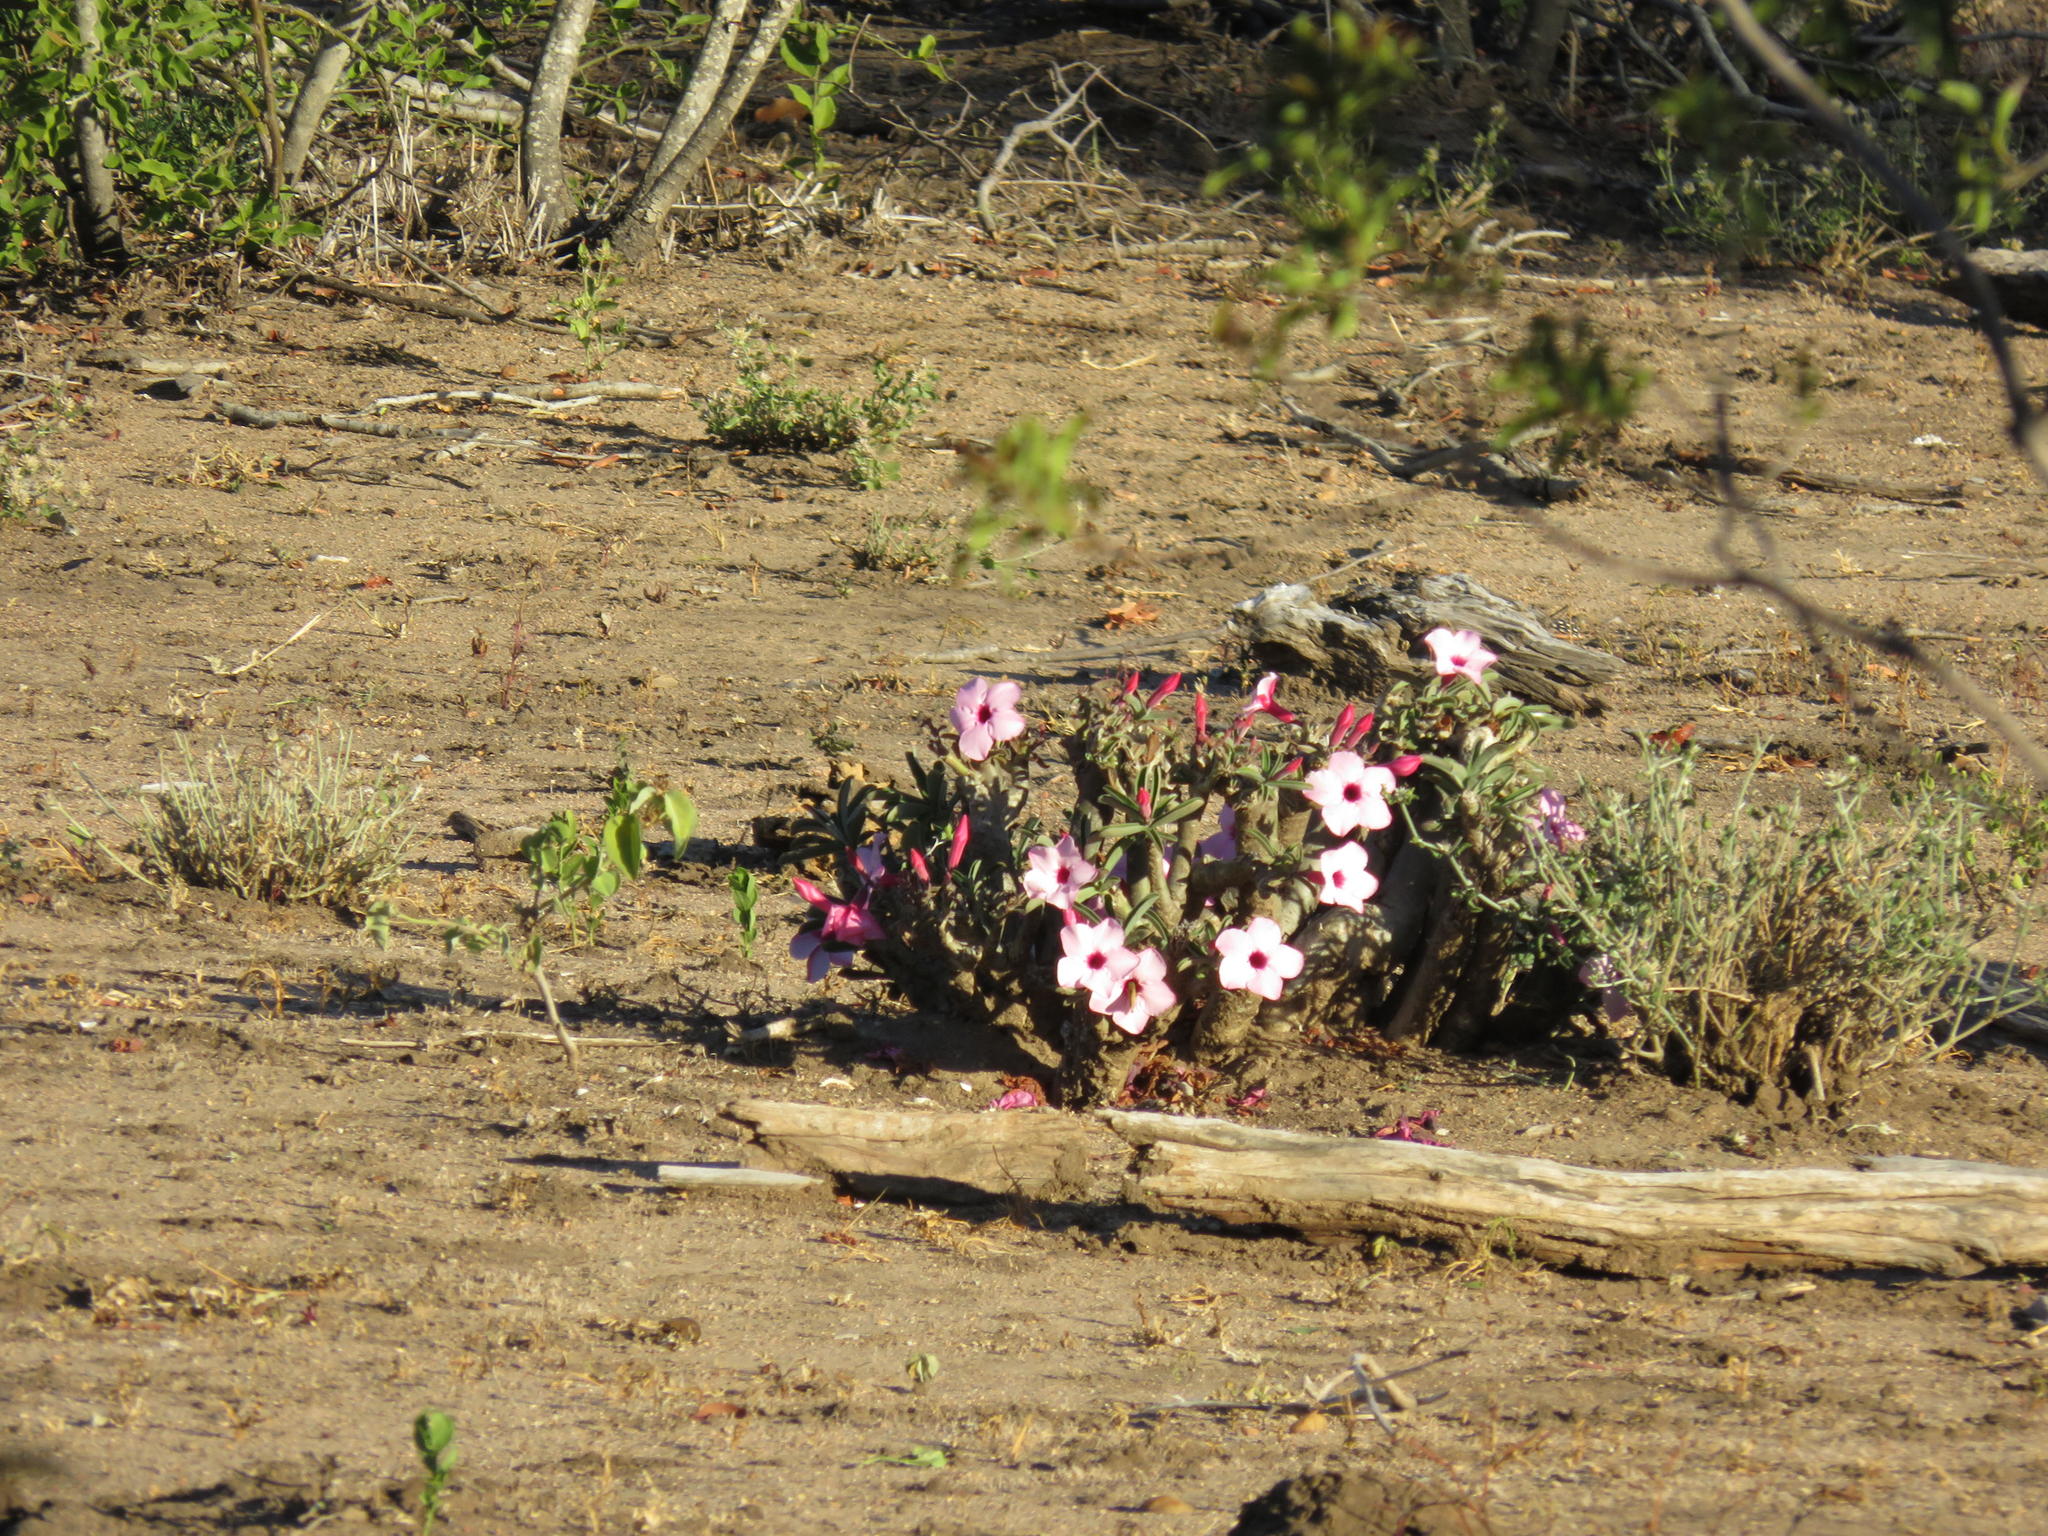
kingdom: Plantae
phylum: Tracheophyta
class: Magnoliopsida
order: Gentianales
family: Apocynaceae
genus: Adenium
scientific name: Adenium obesum
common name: Desert-rose
